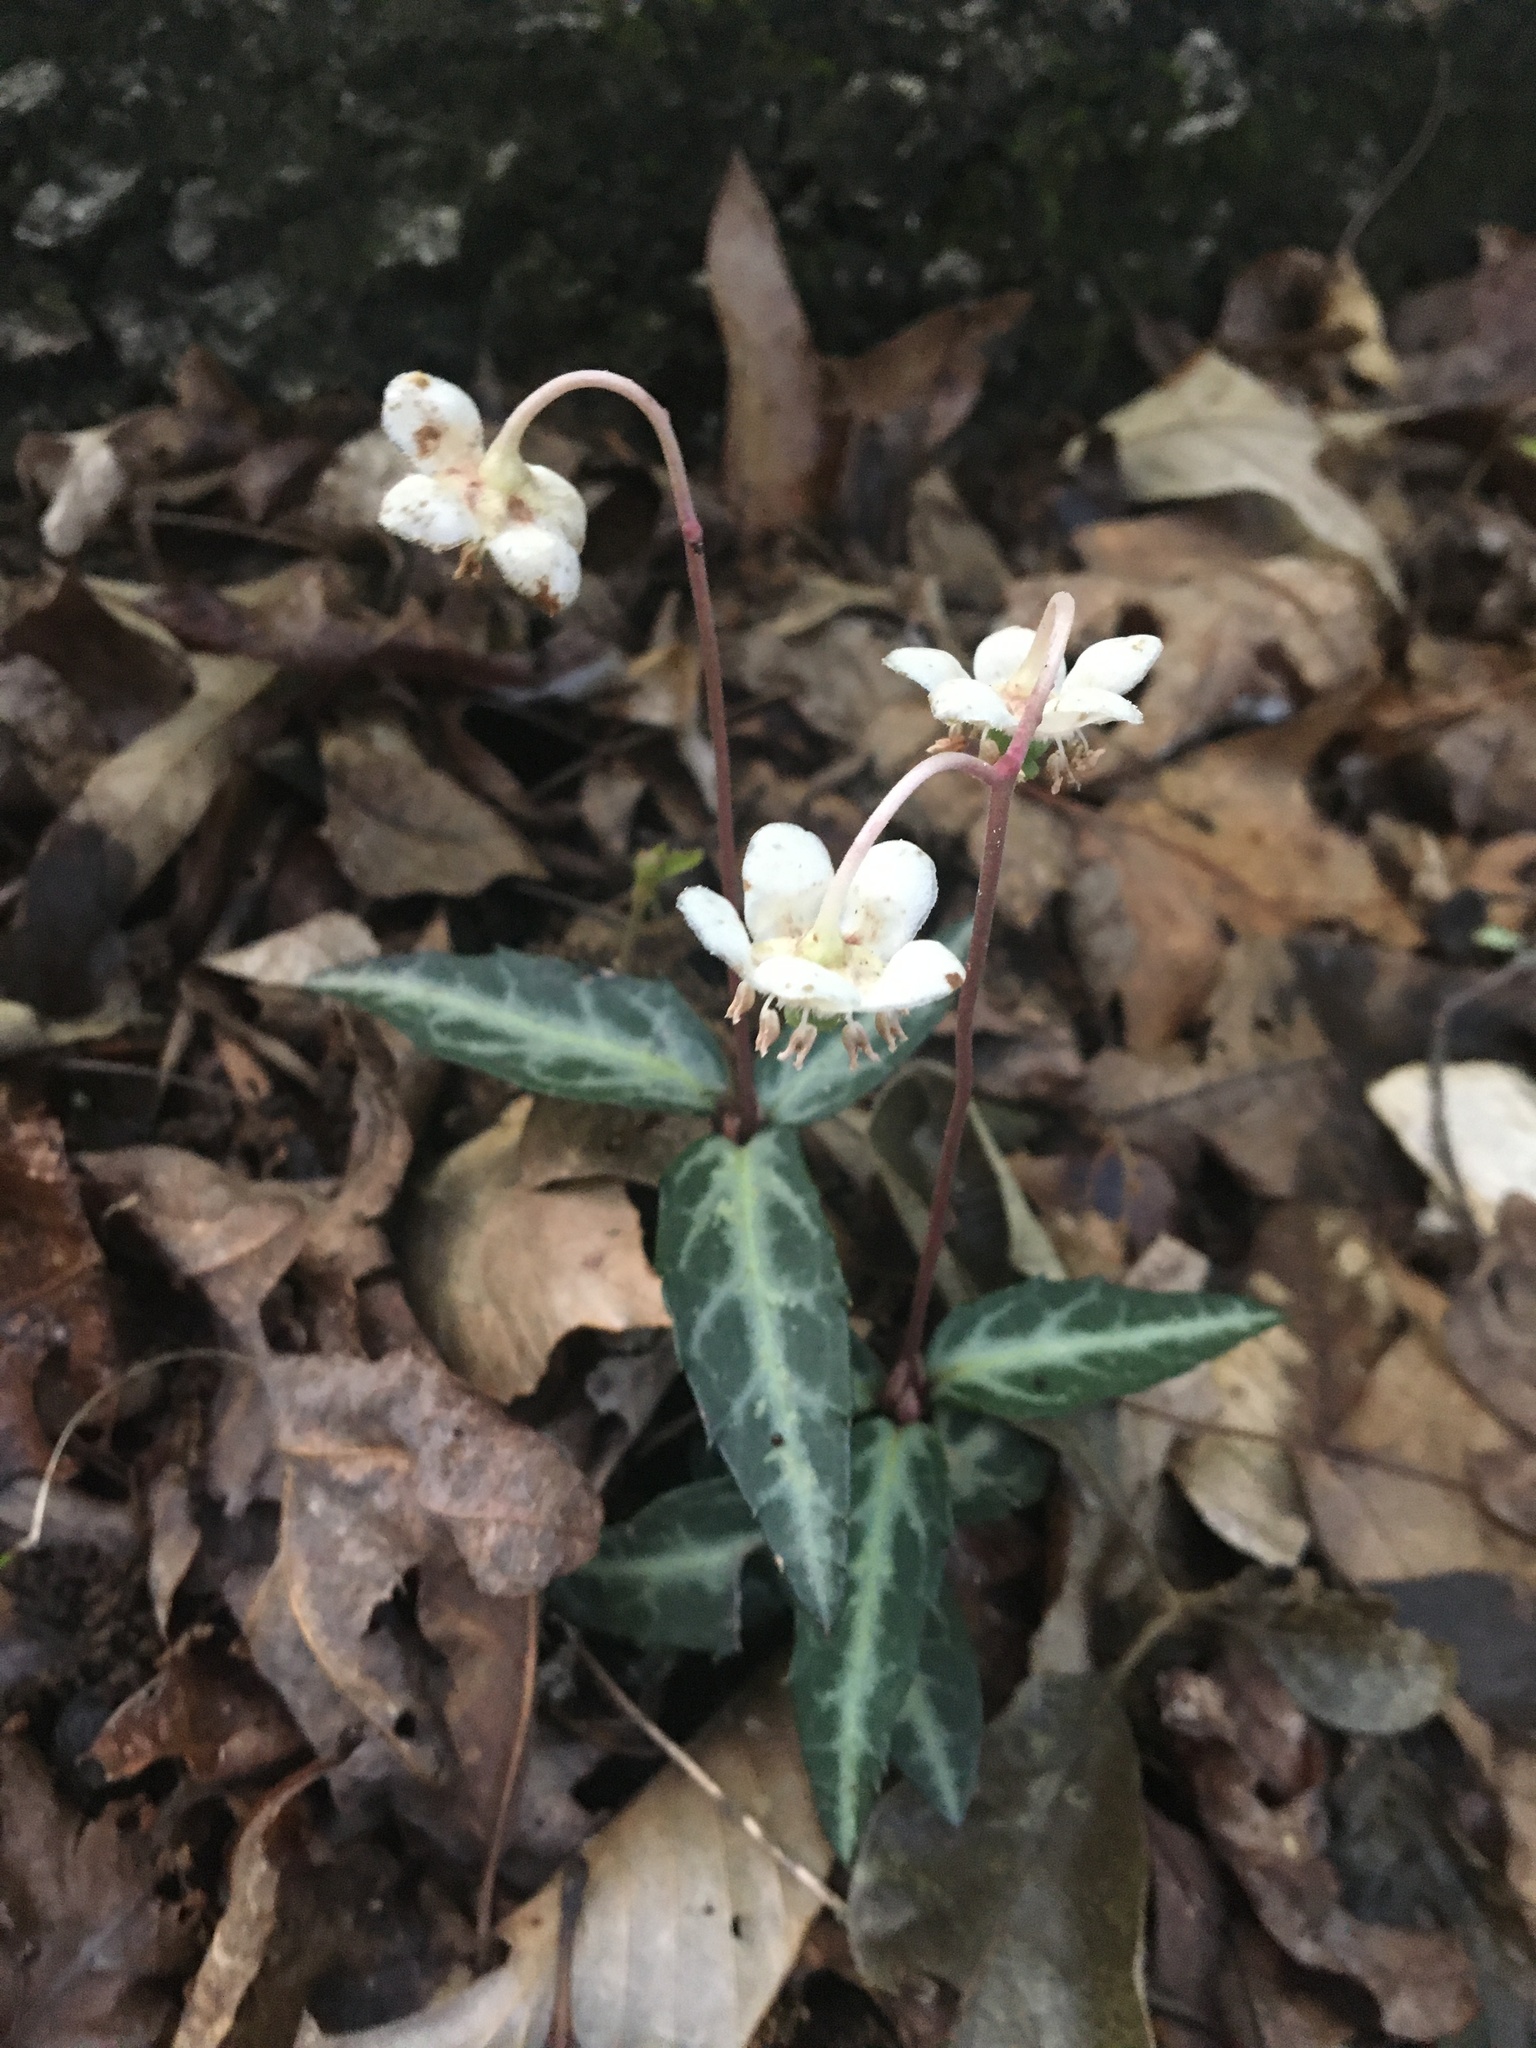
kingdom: Plantae
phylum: Tracheophyta
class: Magnoliopsida
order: Ericales
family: Ericaceae
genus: Chimaphila
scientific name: Chimaphila maculata
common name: Spotted pipsissewa
